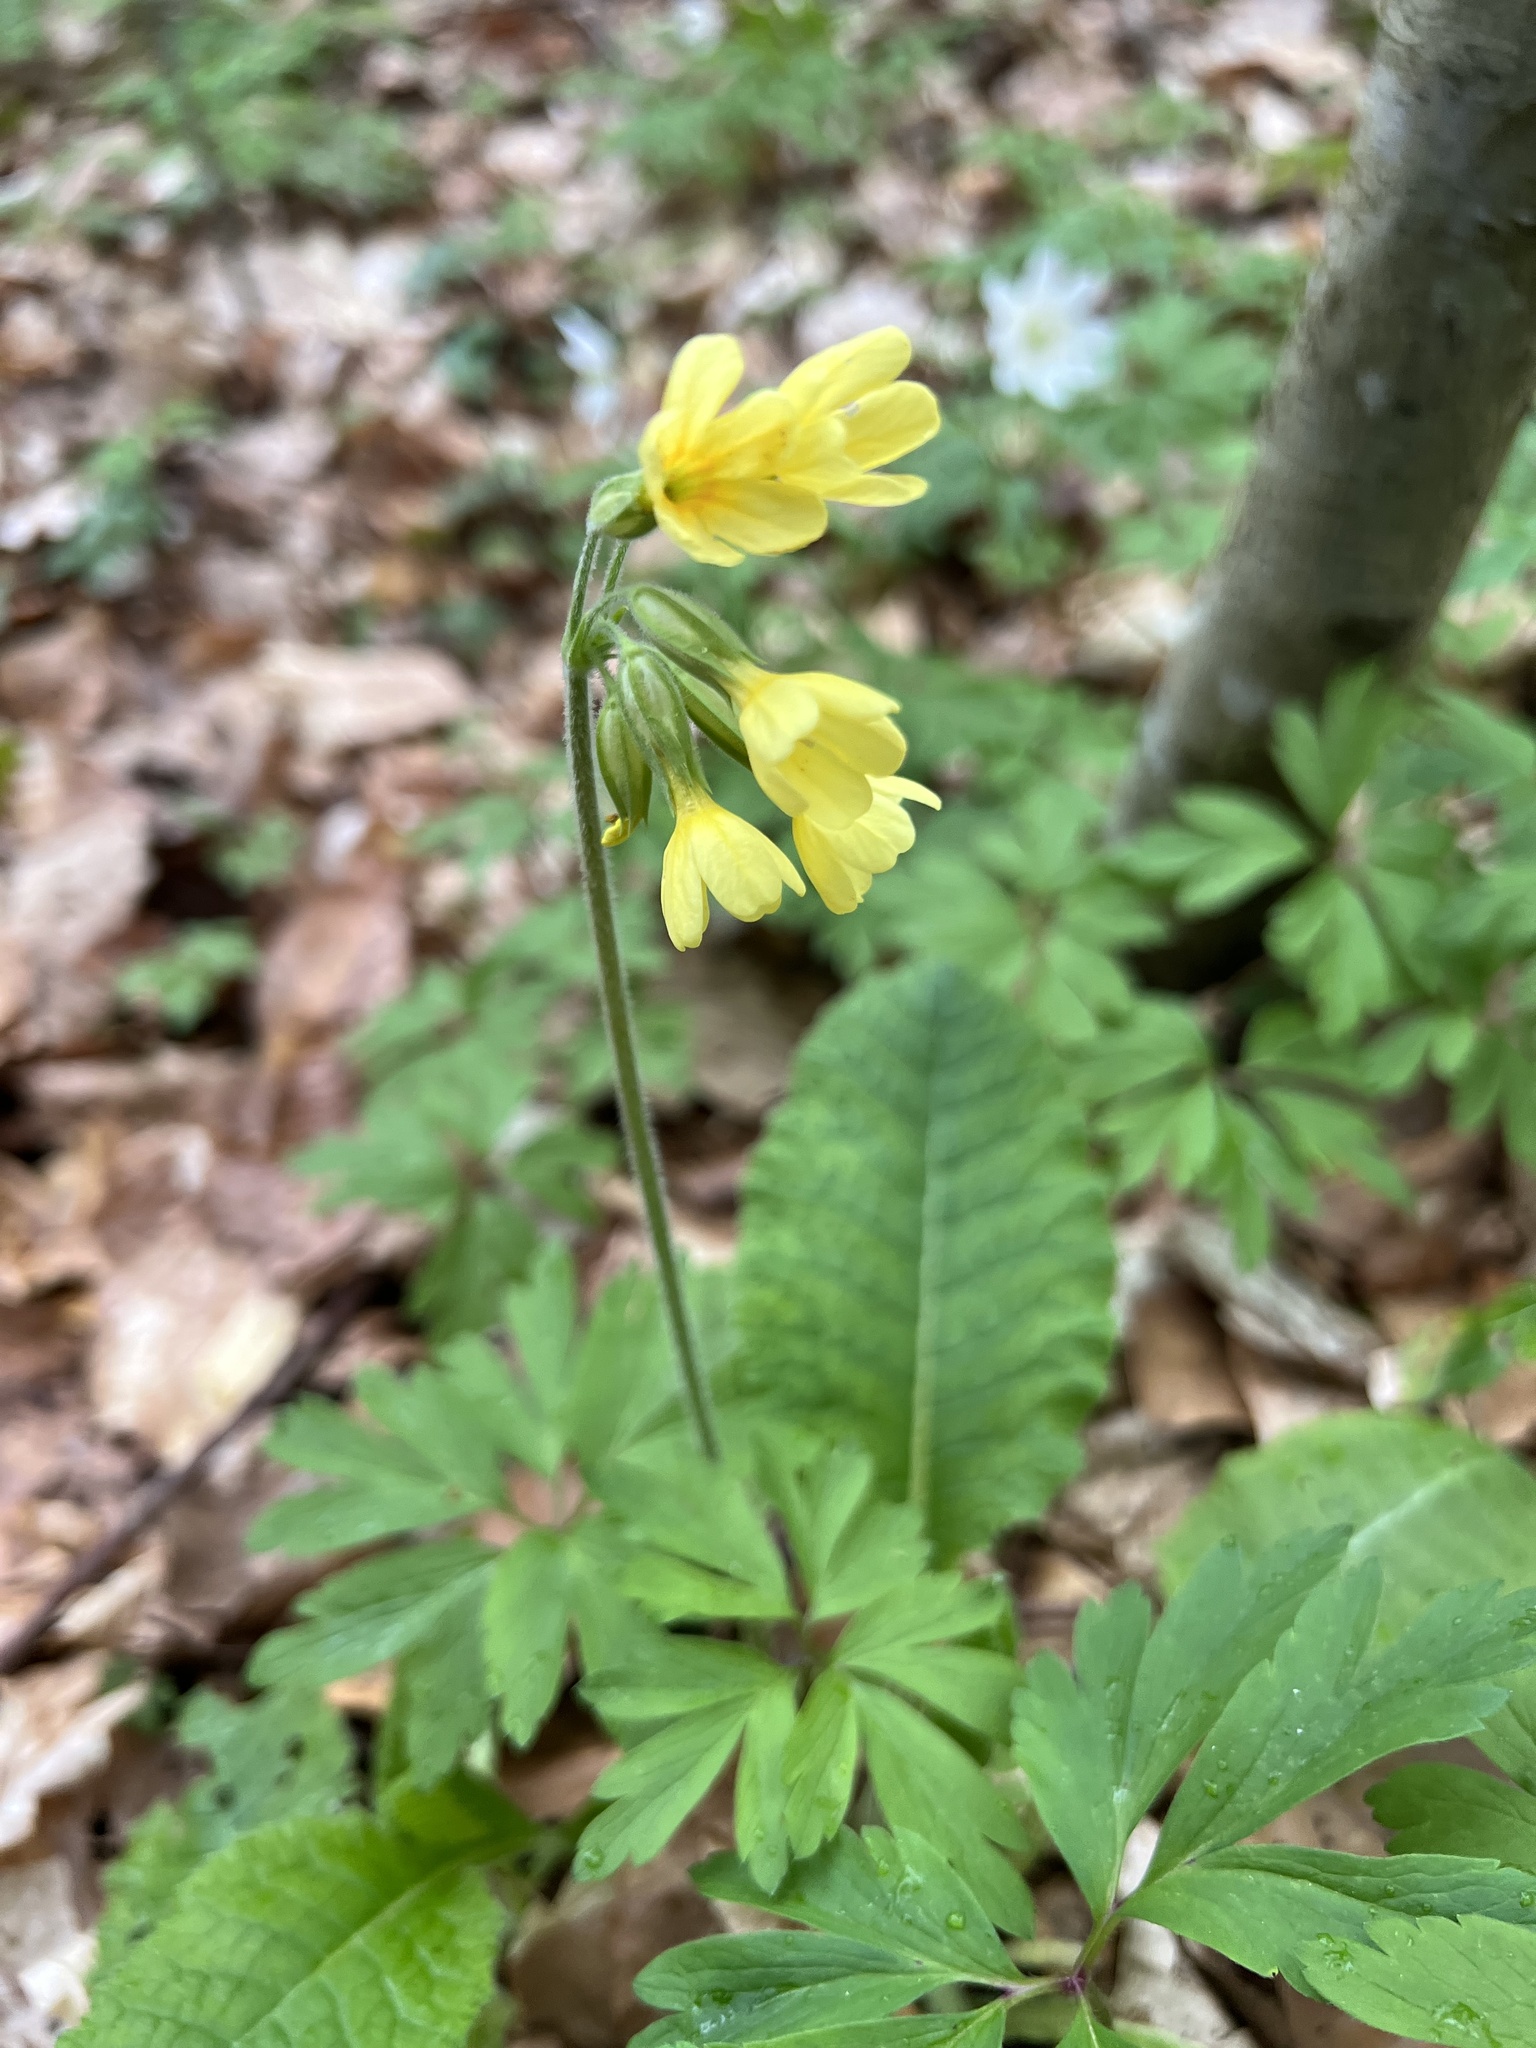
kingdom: Plantae
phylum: Tracheophyta
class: Magnoliopsida
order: Ericales
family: Primulaceae
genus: Primula
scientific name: Primula elatior
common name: Oxlip
